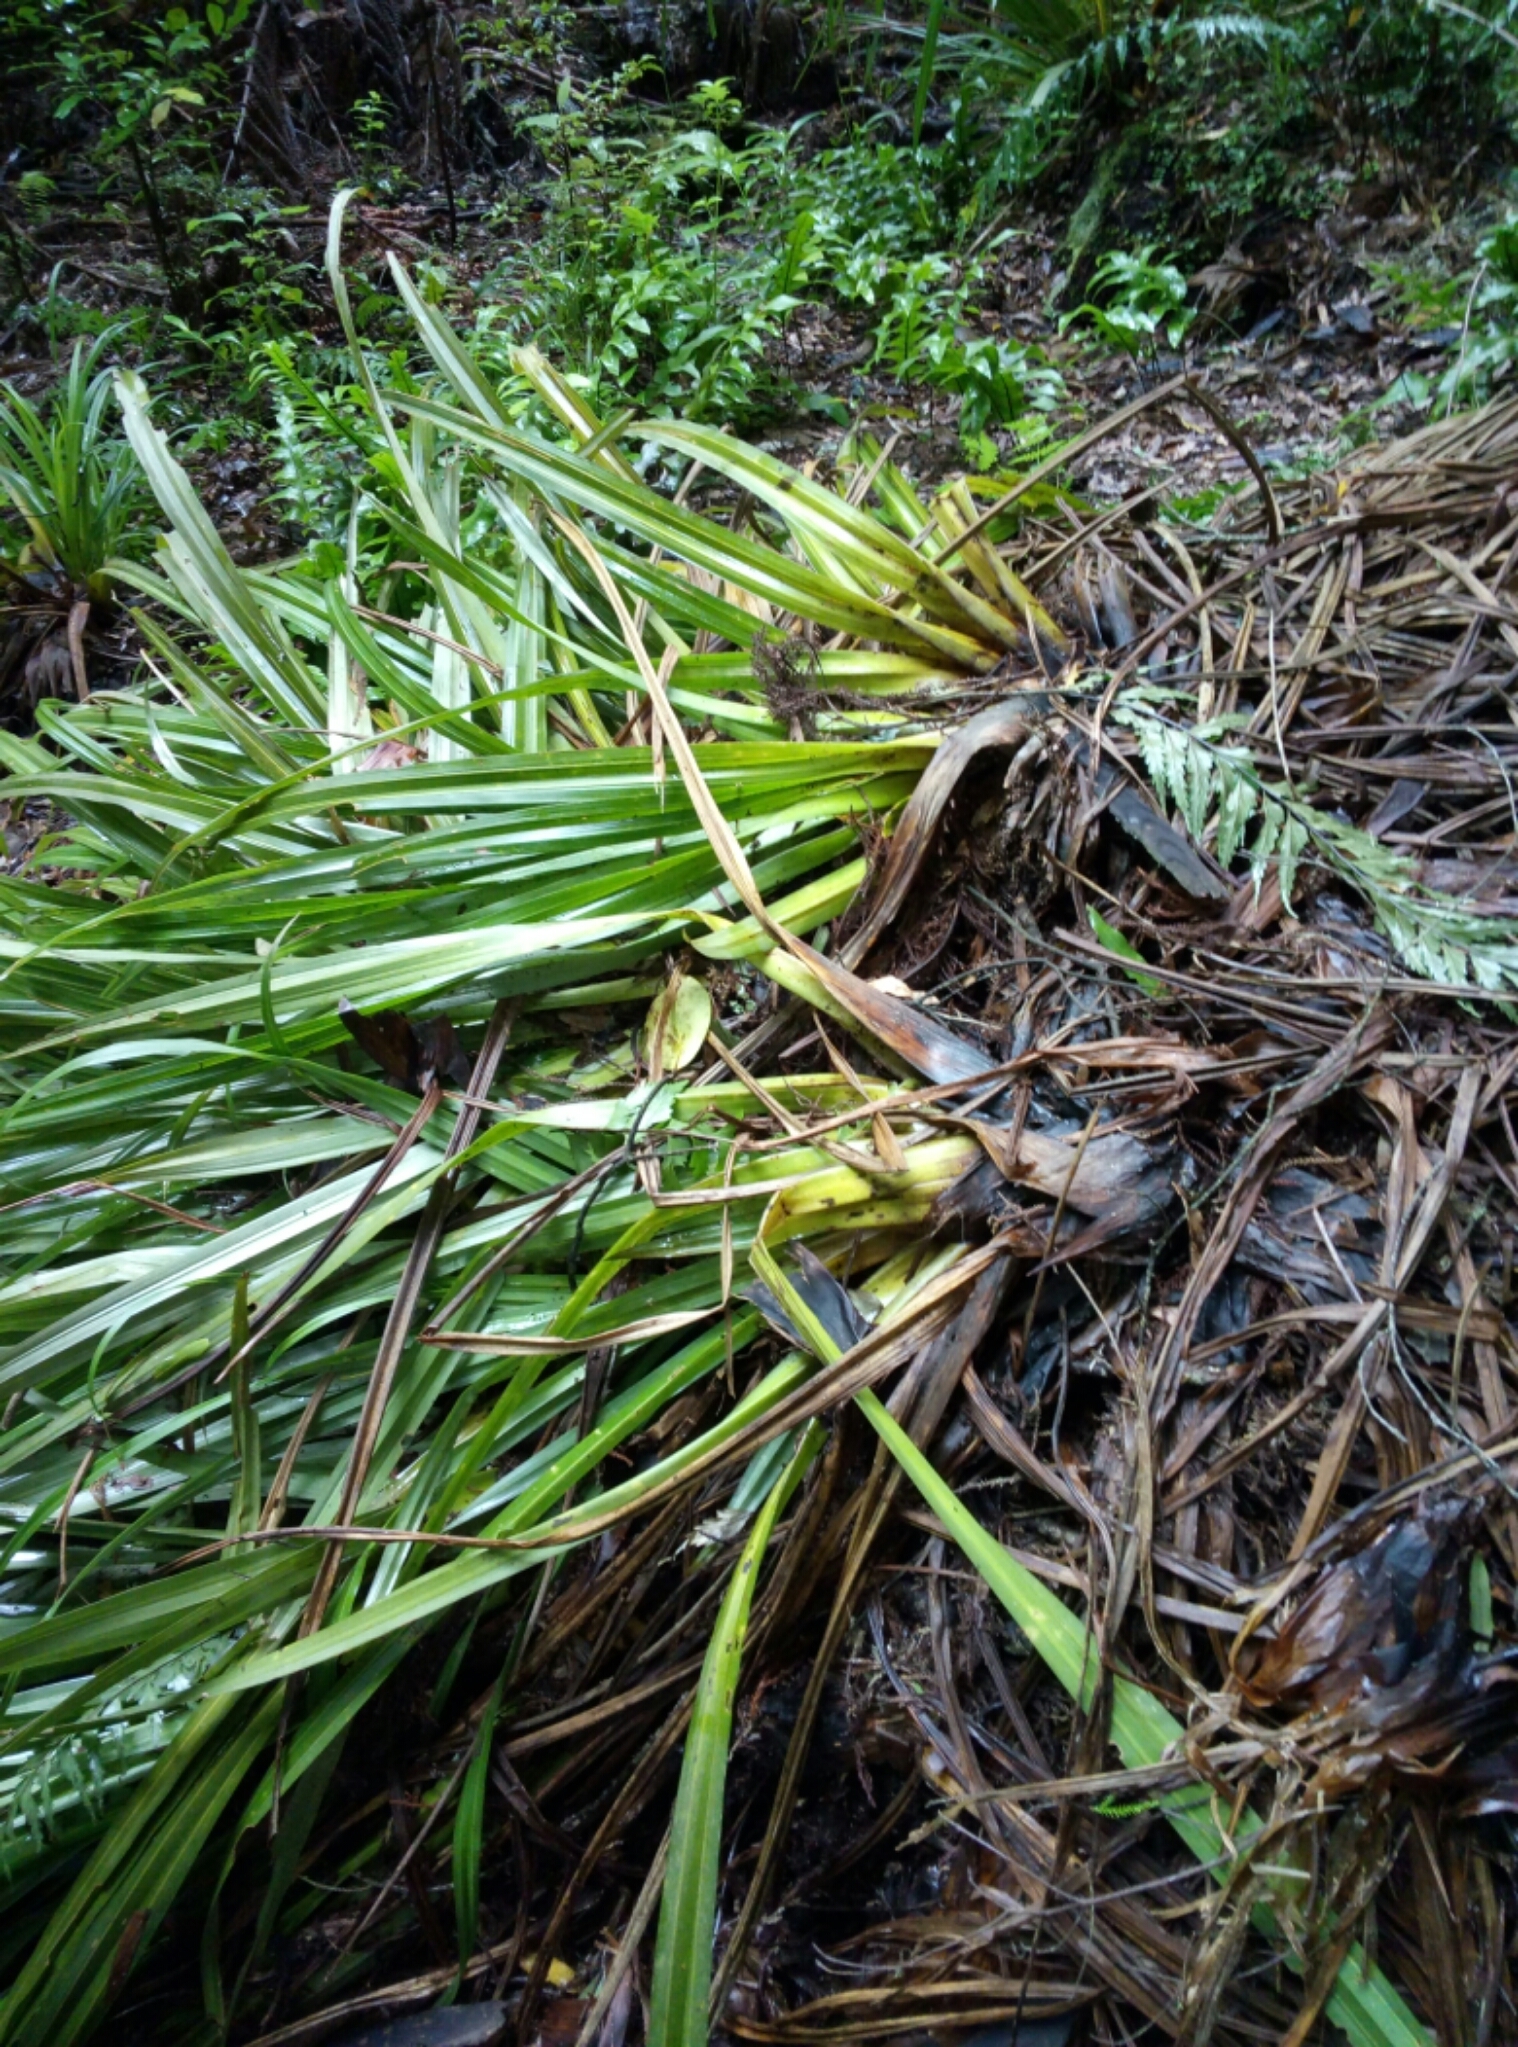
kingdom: Plantae
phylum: Tracheophyta
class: Liliopsida
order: Asparagales
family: Asteliaceae
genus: Astelia
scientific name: Astelia microsperma
